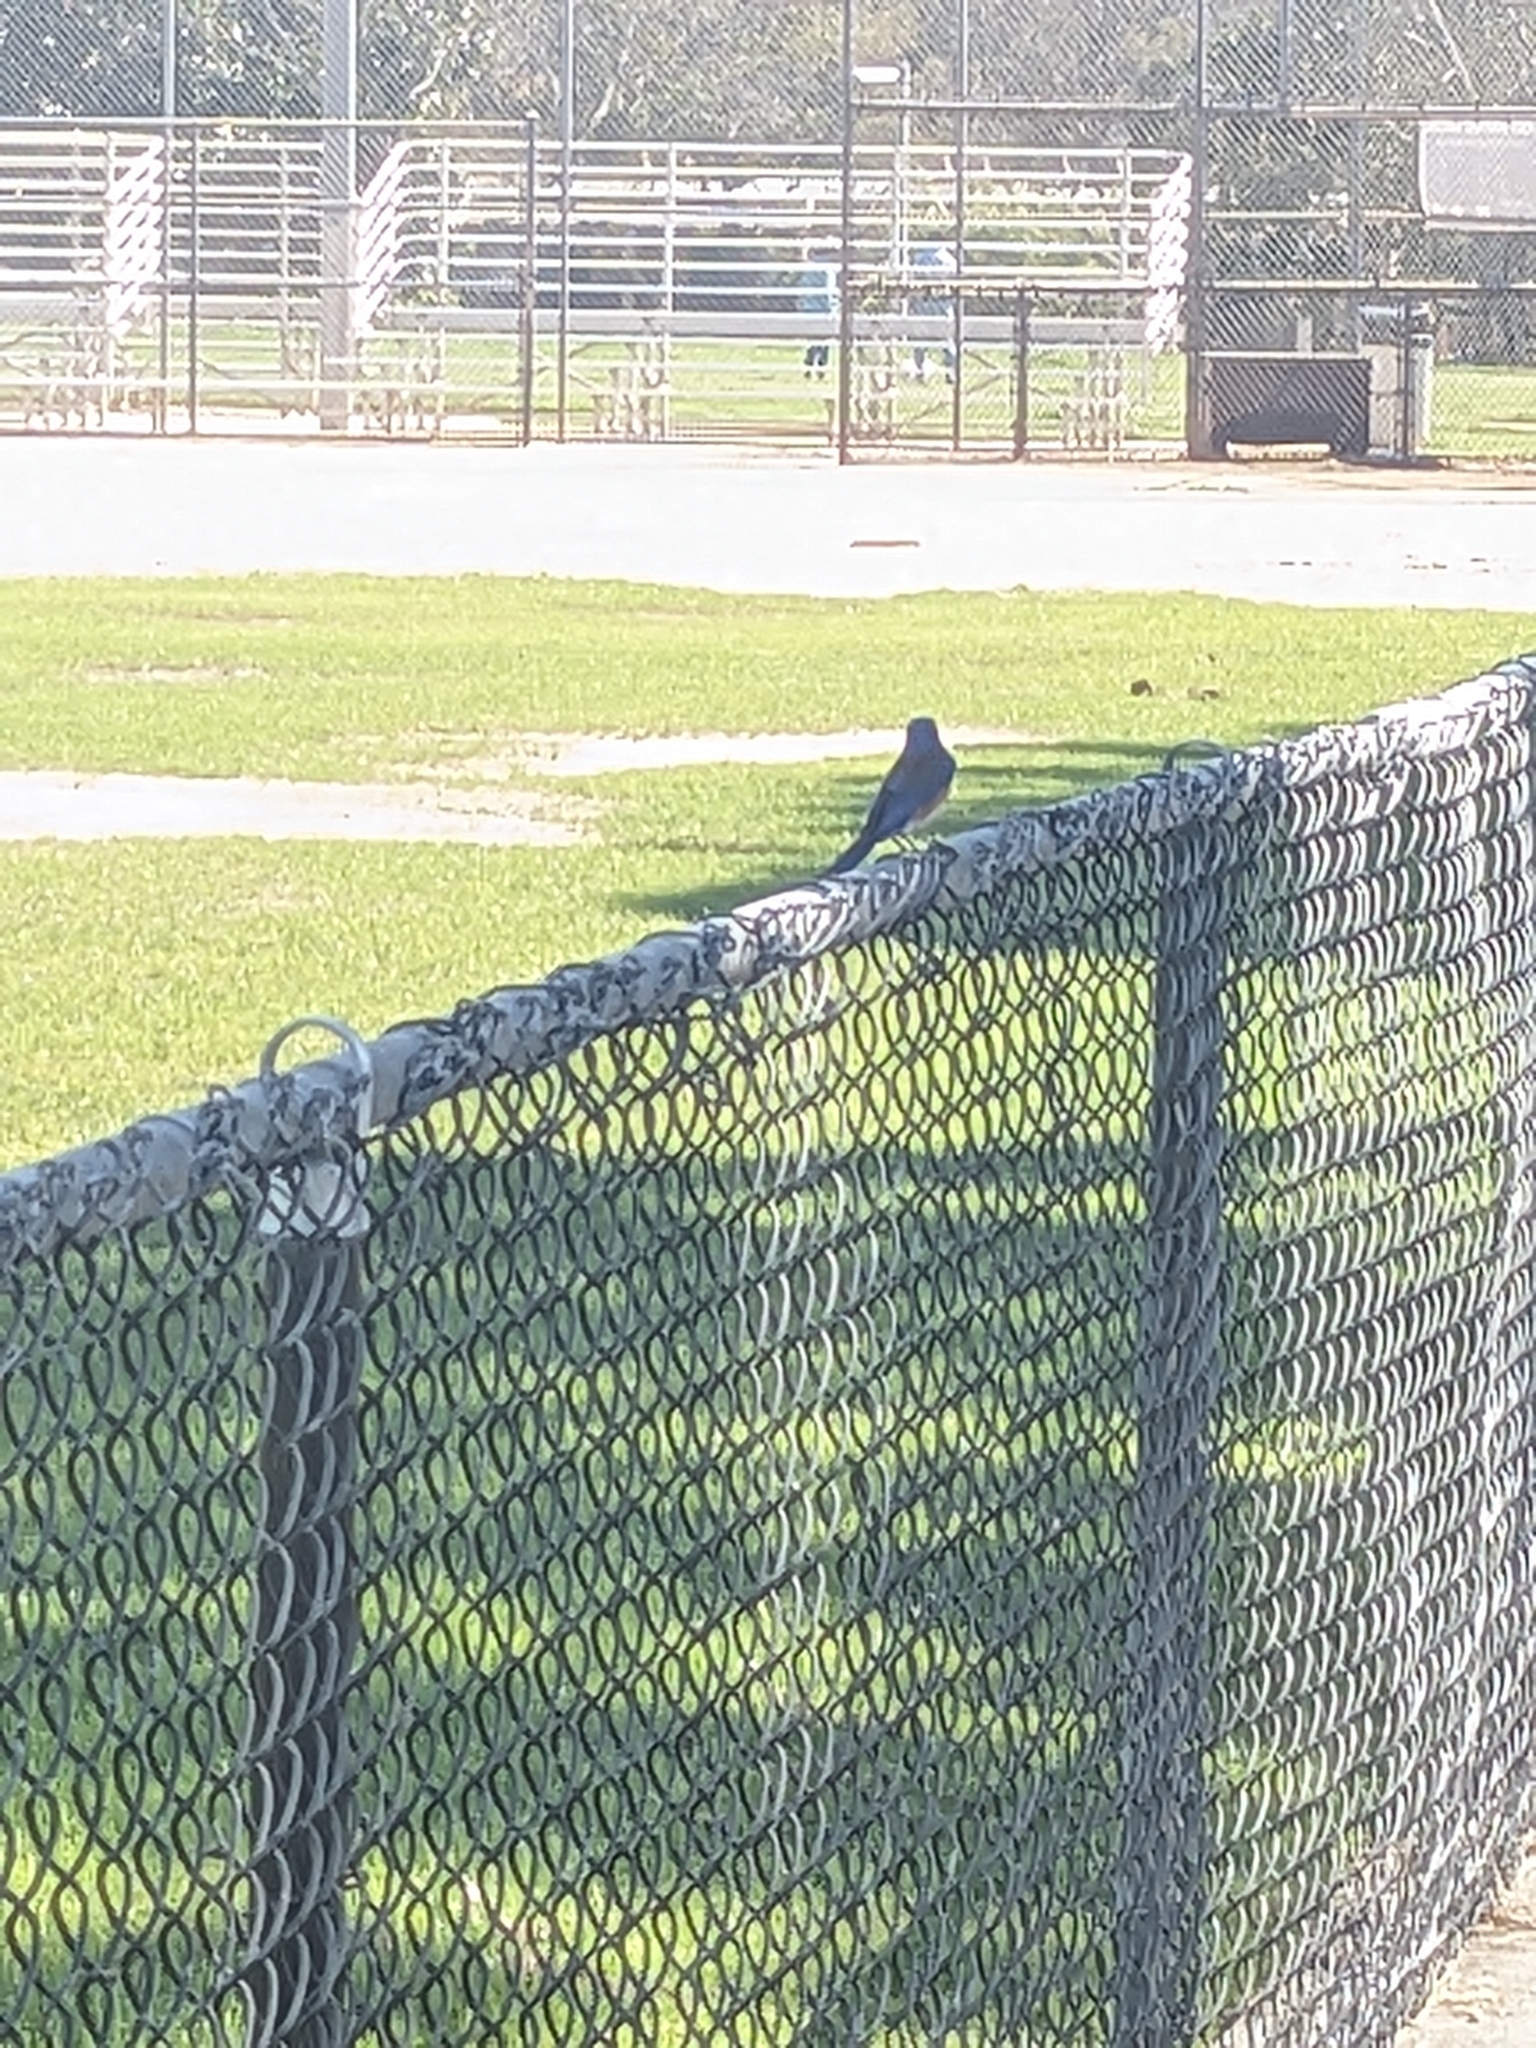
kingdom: Animalia
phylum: Chordata
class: Aves
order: Passeriformes
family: Turdidae
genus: Sialia
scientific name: Sialia mexicana
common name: Western bluebird
